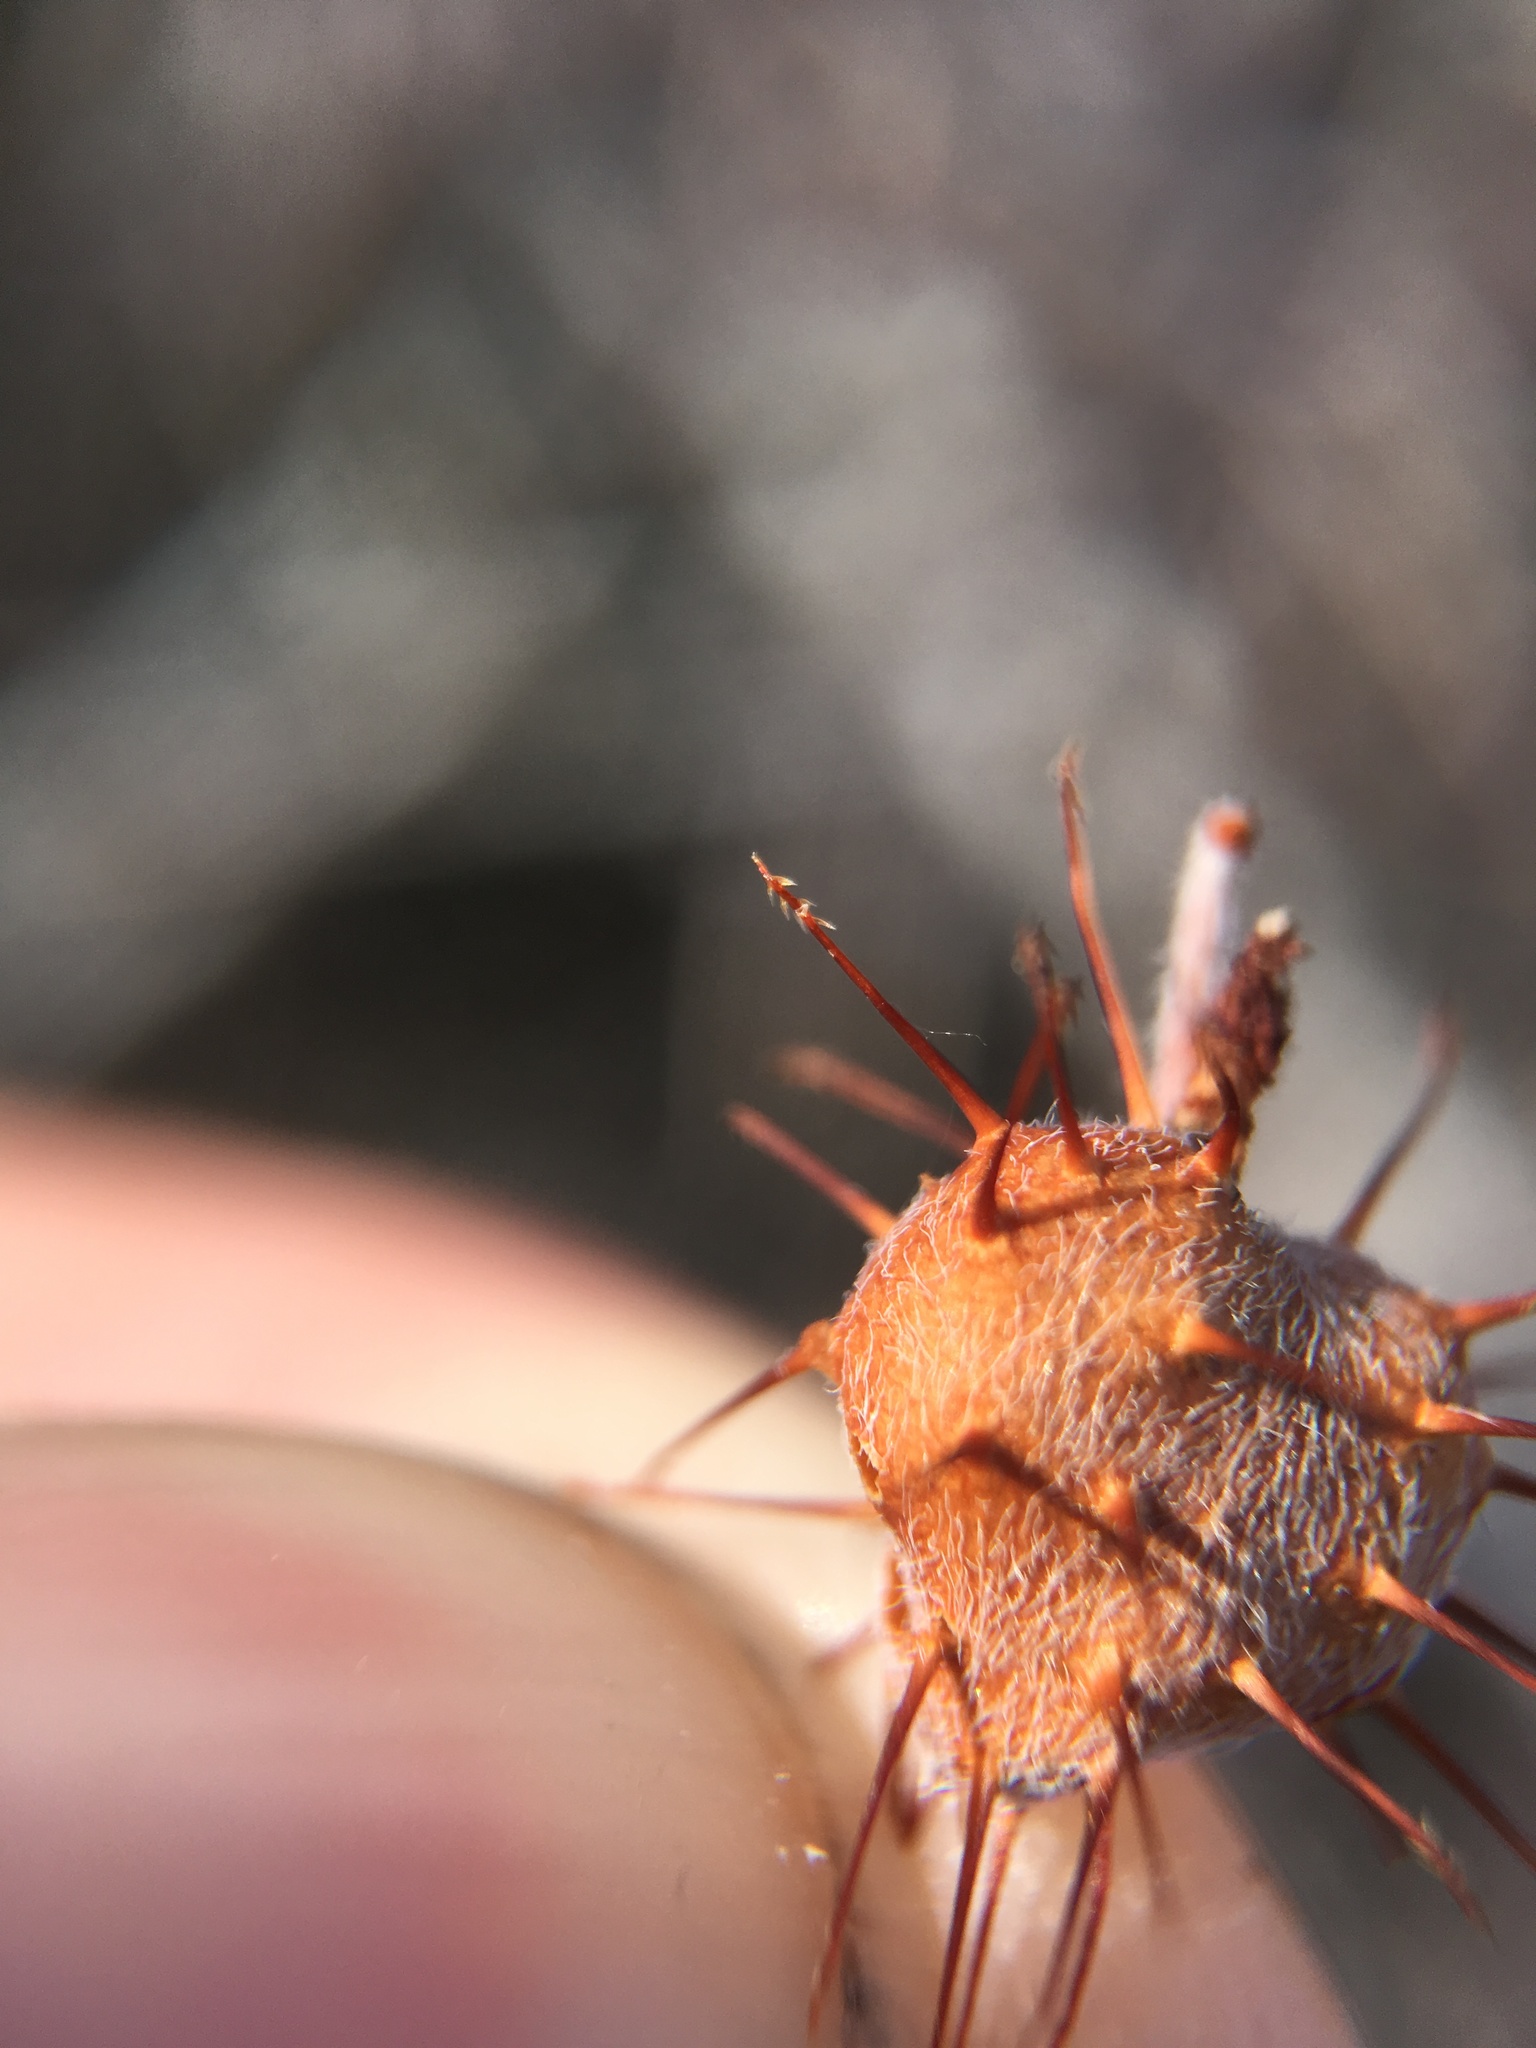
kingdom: Plantae
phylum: Tracheophyta
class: Magnoliopsida
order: Zygophyllales
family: Krameriaceae
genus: Krameria
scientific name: Krameria erecta
